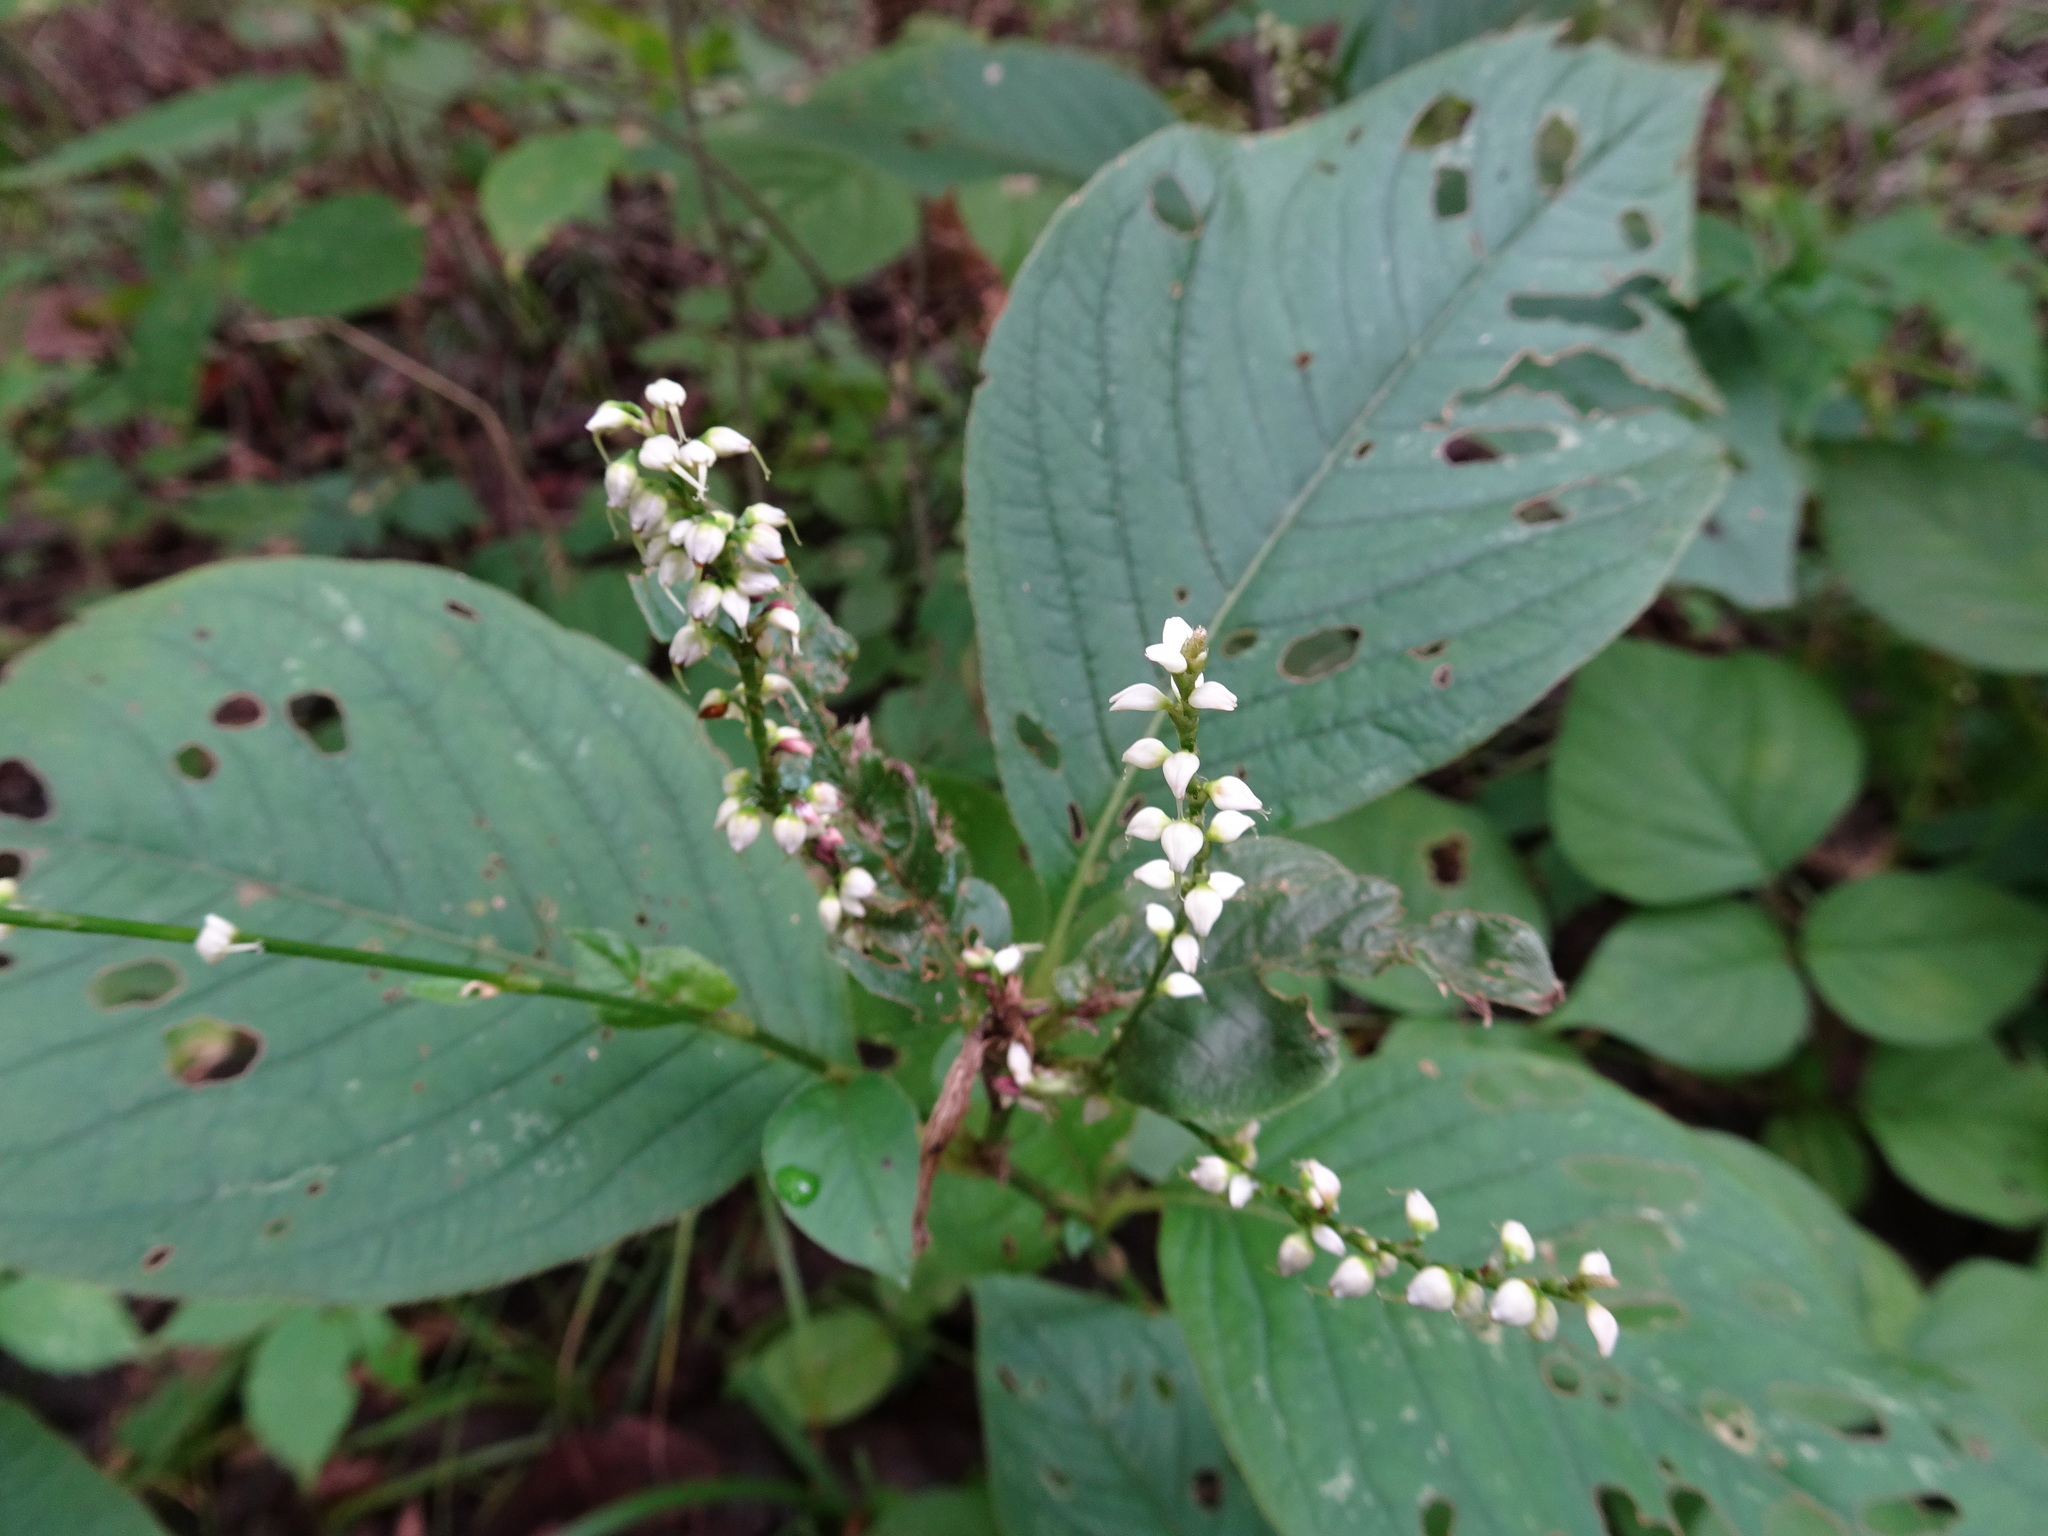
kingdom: Plantae
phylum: Tracheophyta
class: Magnoliopsida
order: Caryophyllales
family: Polygonaceae
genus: Persicaria
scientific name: Persicaria virginiana
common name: Jumpseed
